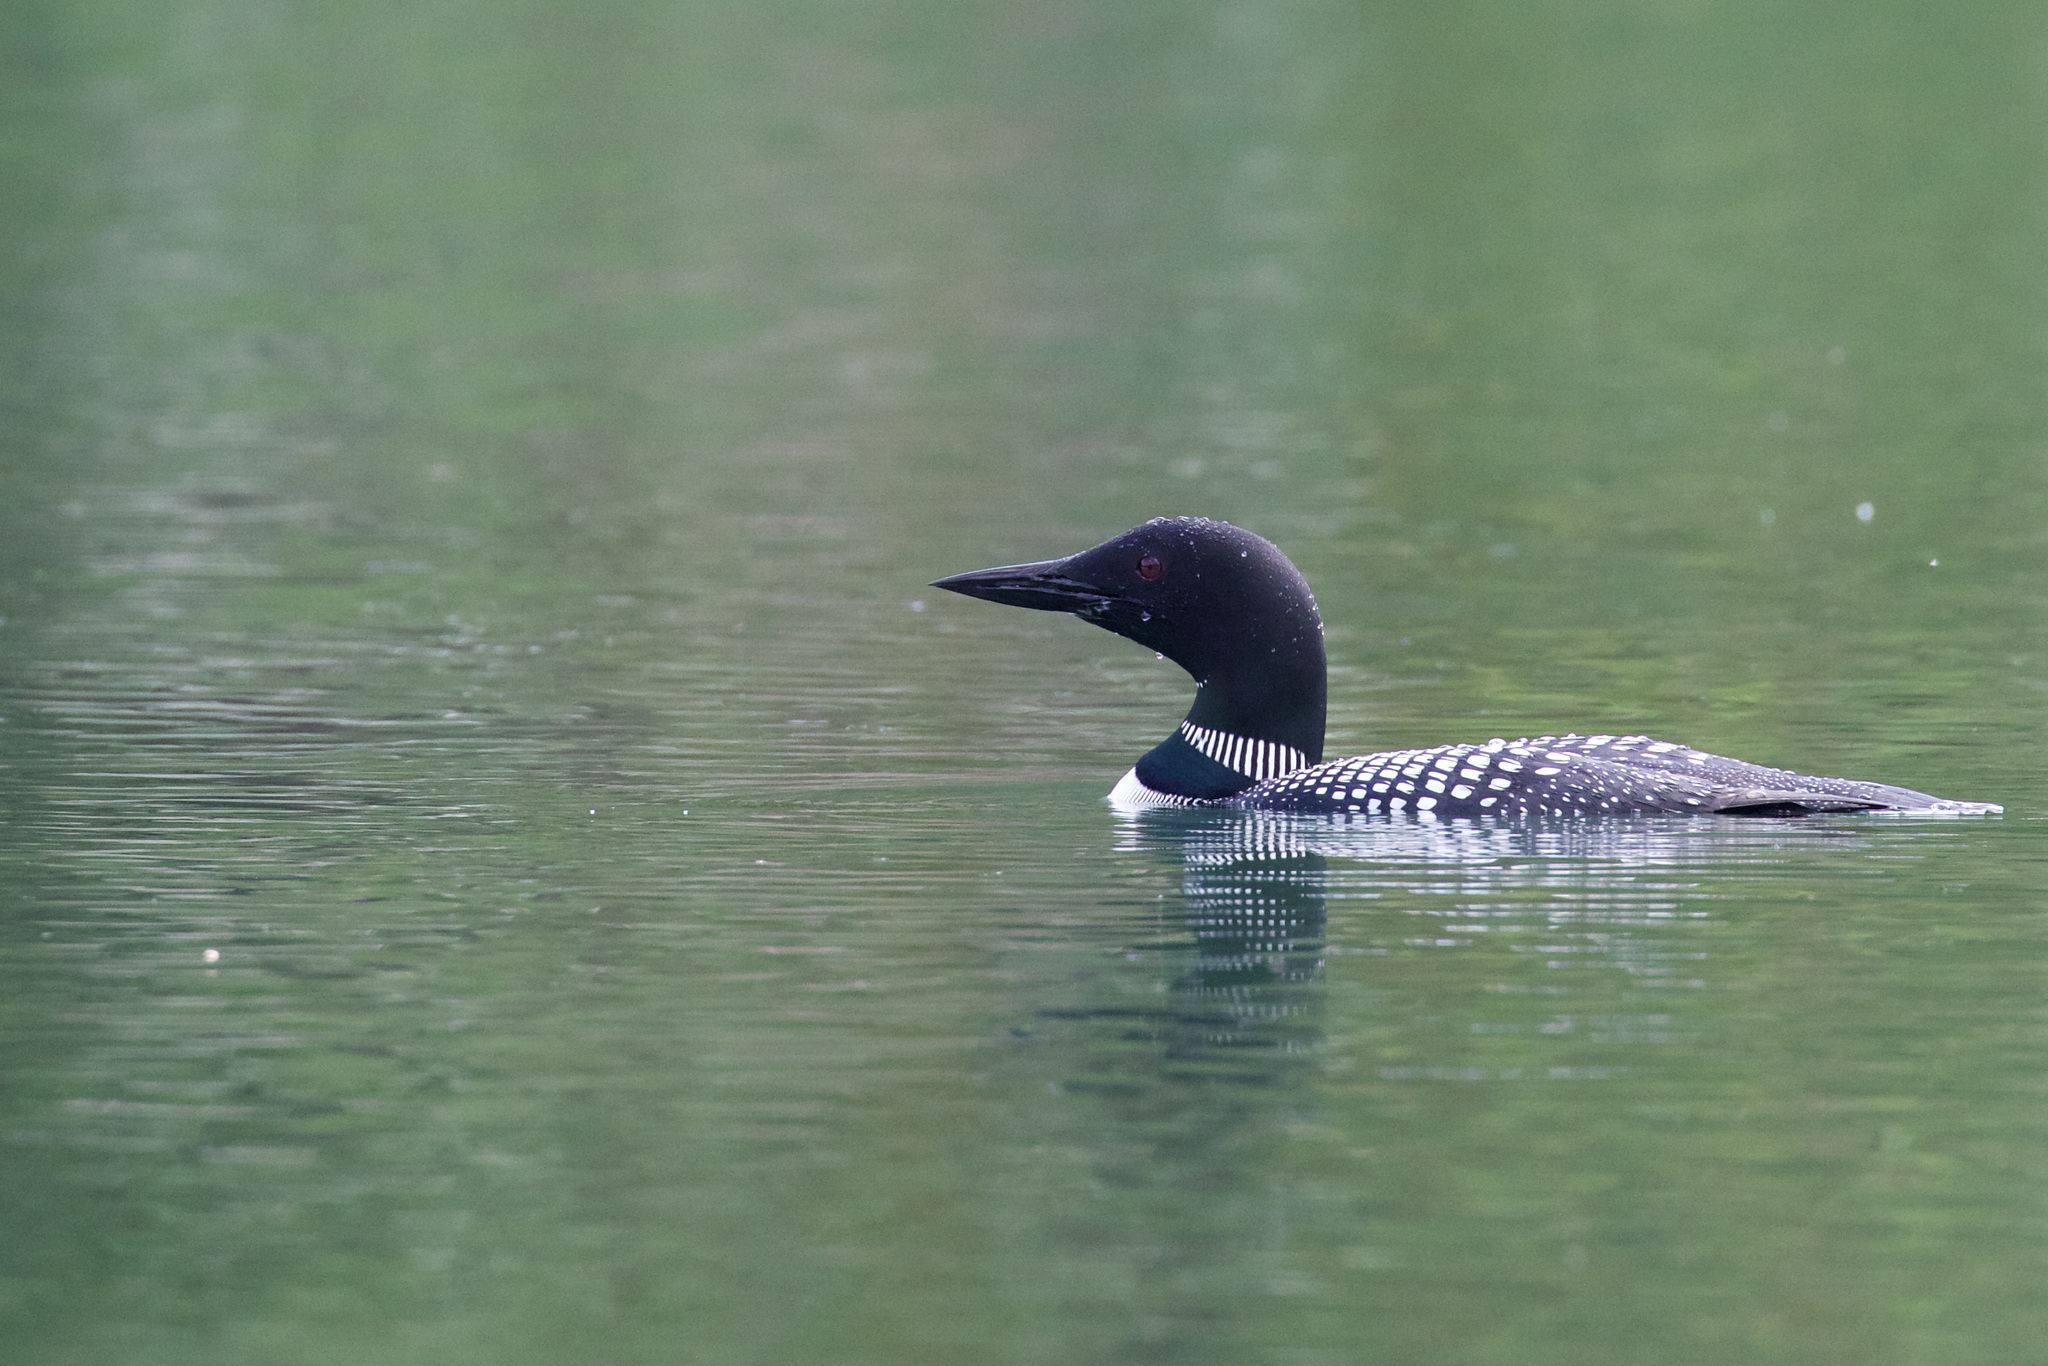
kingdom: Animalia
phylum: Chordata
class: Aves
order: Gaviiformes
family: Gaviidae
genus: Gavia
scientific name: Gavia immer
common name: Common loon
